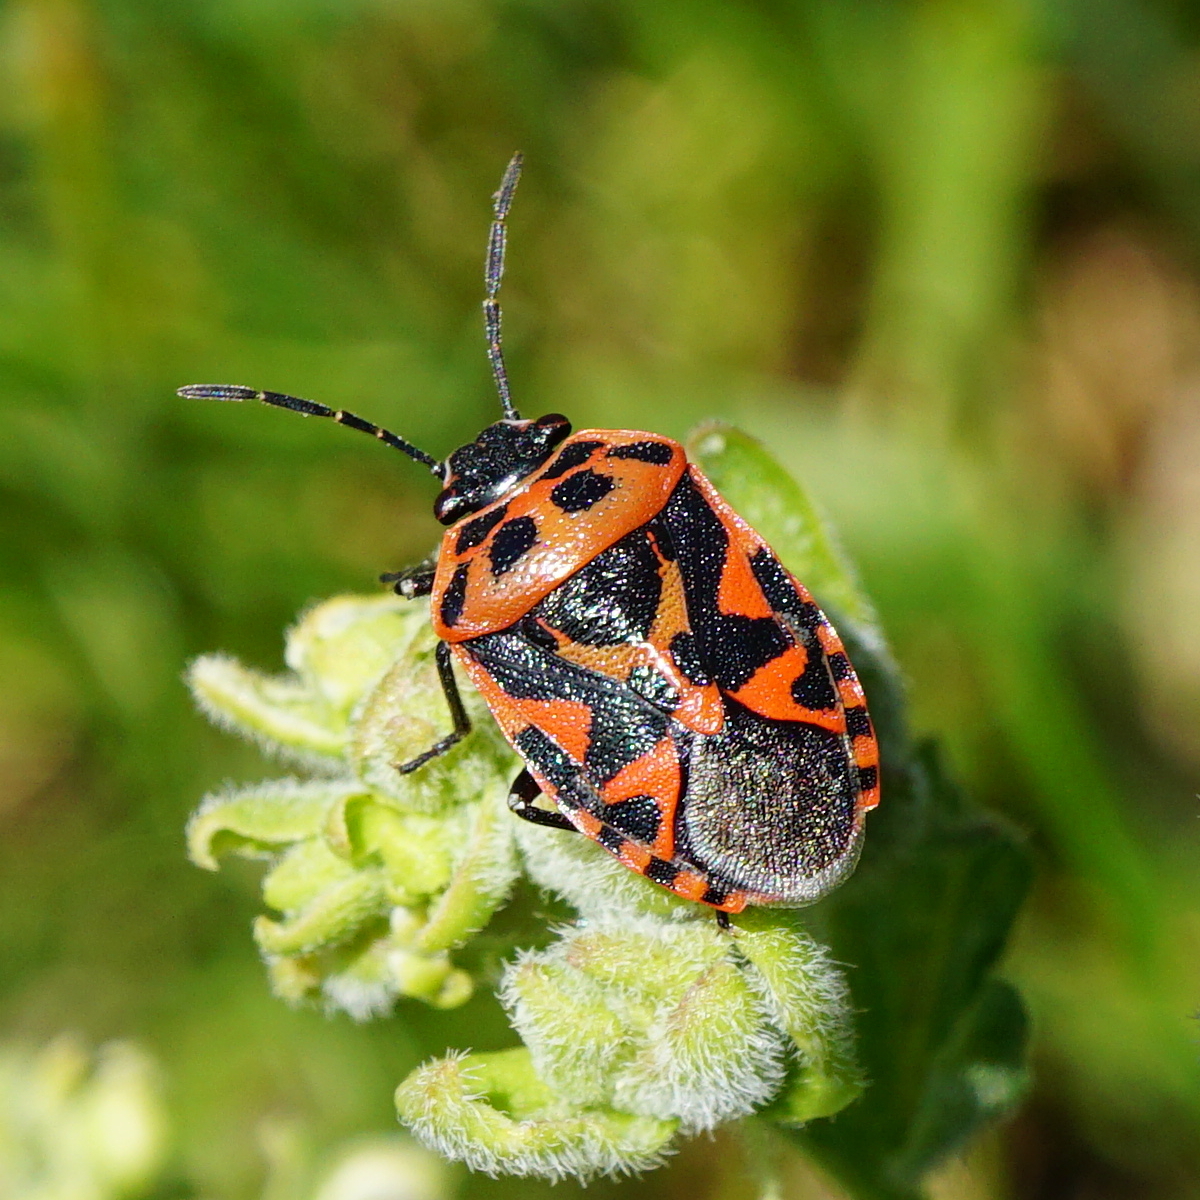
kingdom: Animalia
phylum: Arthropoda
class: Insecta
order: Hemiptera
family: Pentatomidae
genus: Eurydema
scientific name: Eurydema ornata
